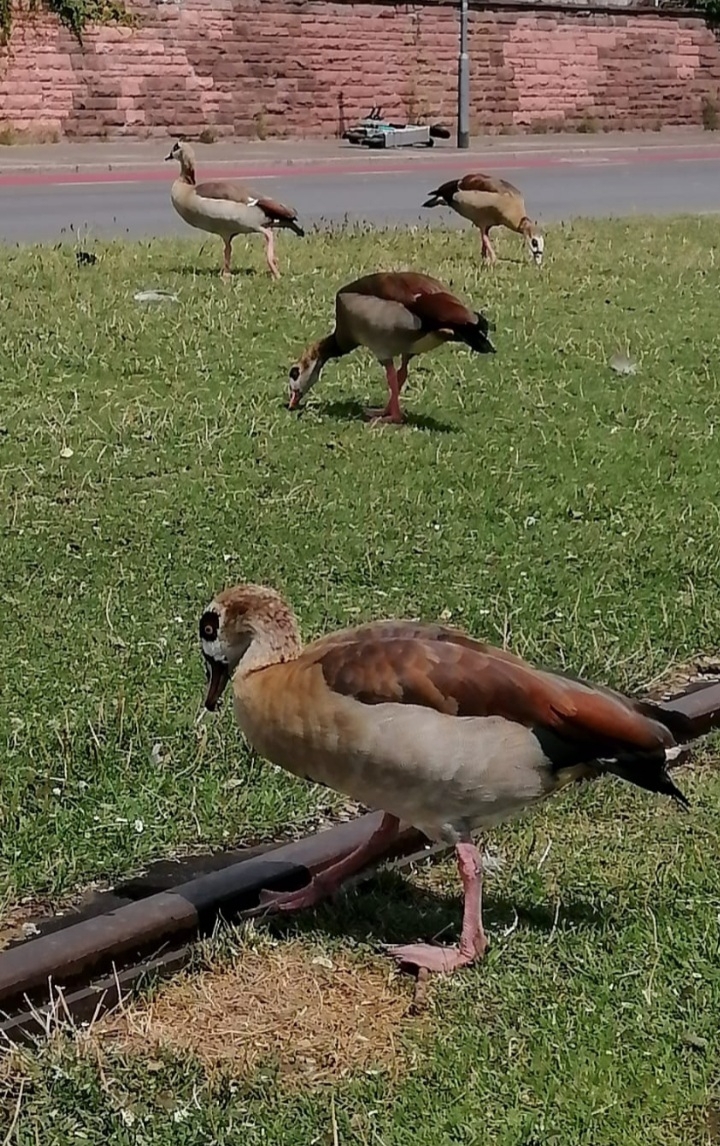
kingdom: Animalia
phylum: Chordata
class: Aves
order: Anseriformes
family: Anatidae
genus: Alopochen
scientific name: Alopochen aegyptiaca
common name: Egyptian goose
